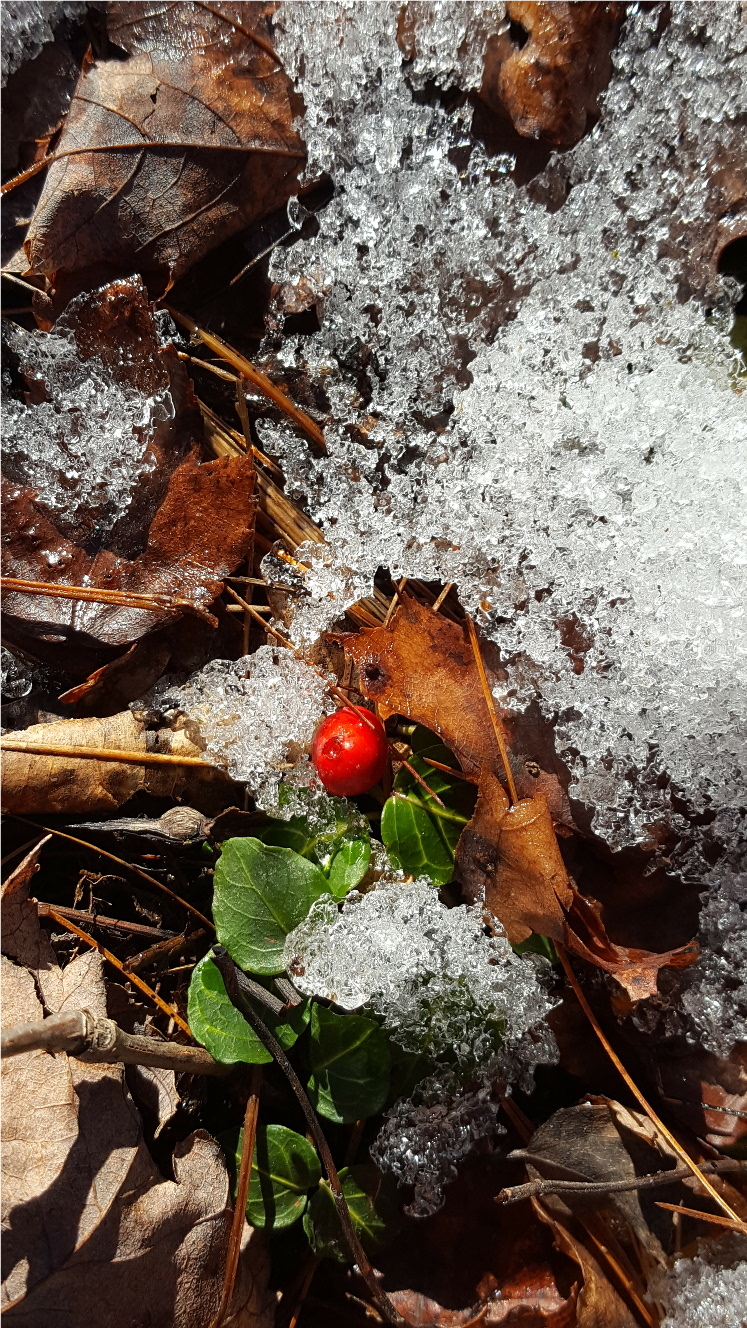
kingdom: Plantae
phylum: Tracheophyta
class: Magnoliopsida
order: Gentianales
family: Rubiaceae
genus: Mitchella
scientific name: Mitchella repens
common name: Partridge-berry
